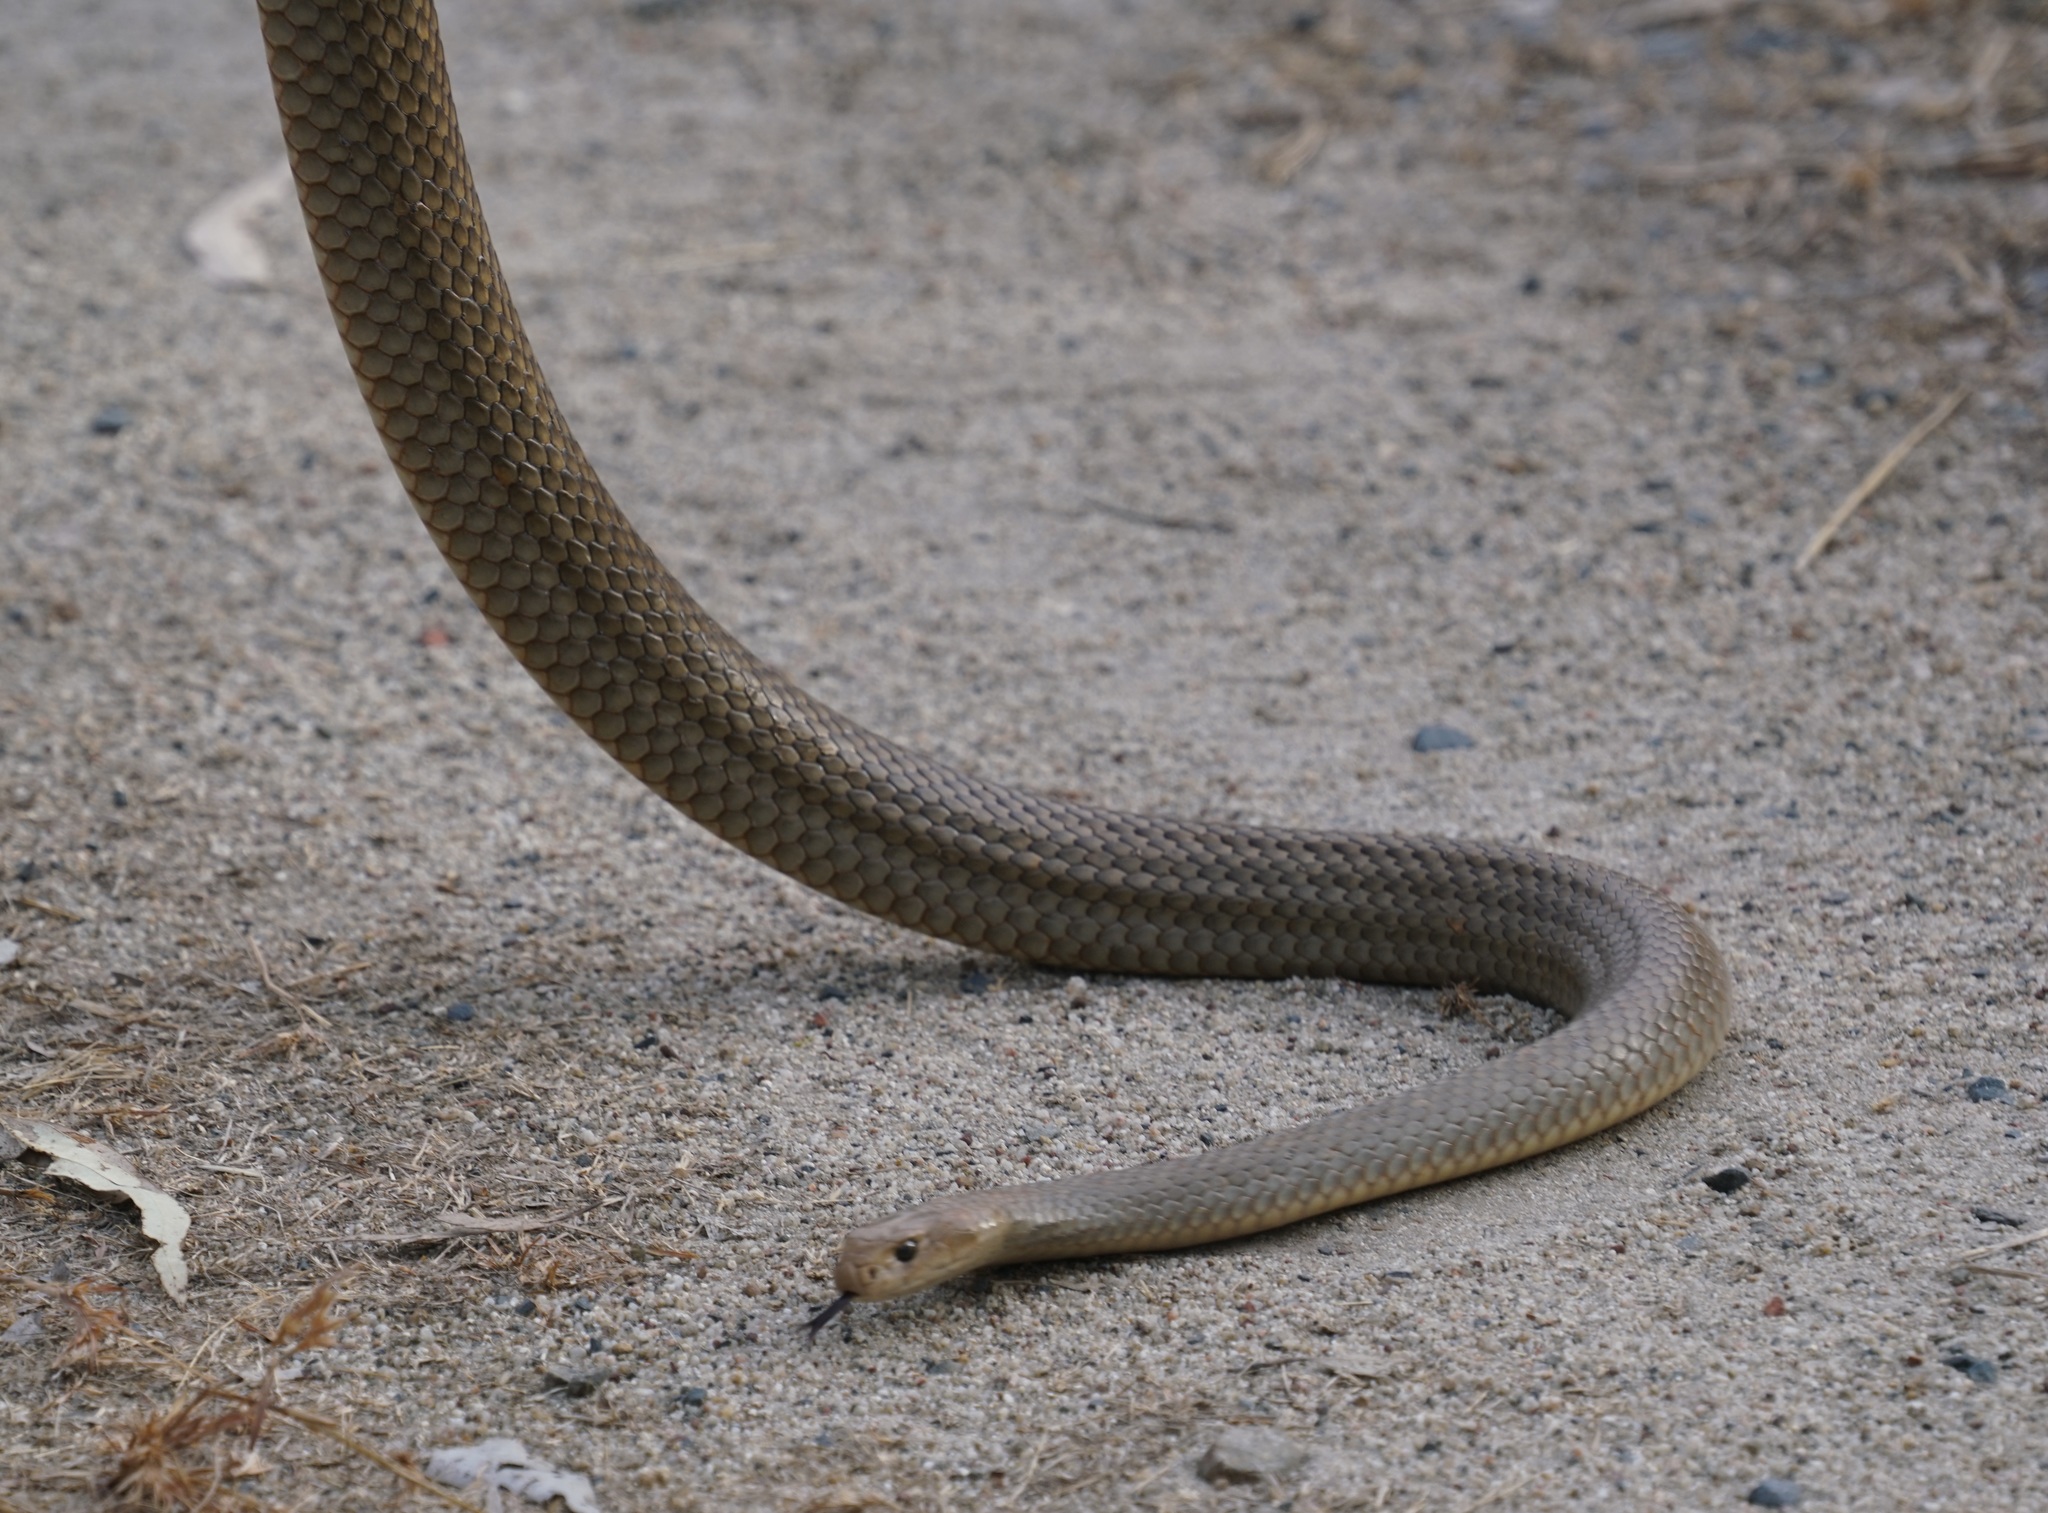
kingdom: Animalia
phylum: Chordata
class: Squamata
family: Elapidae
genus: Pseudonaja
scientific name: Pseudonaja textilis
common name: Eastern brown snake
